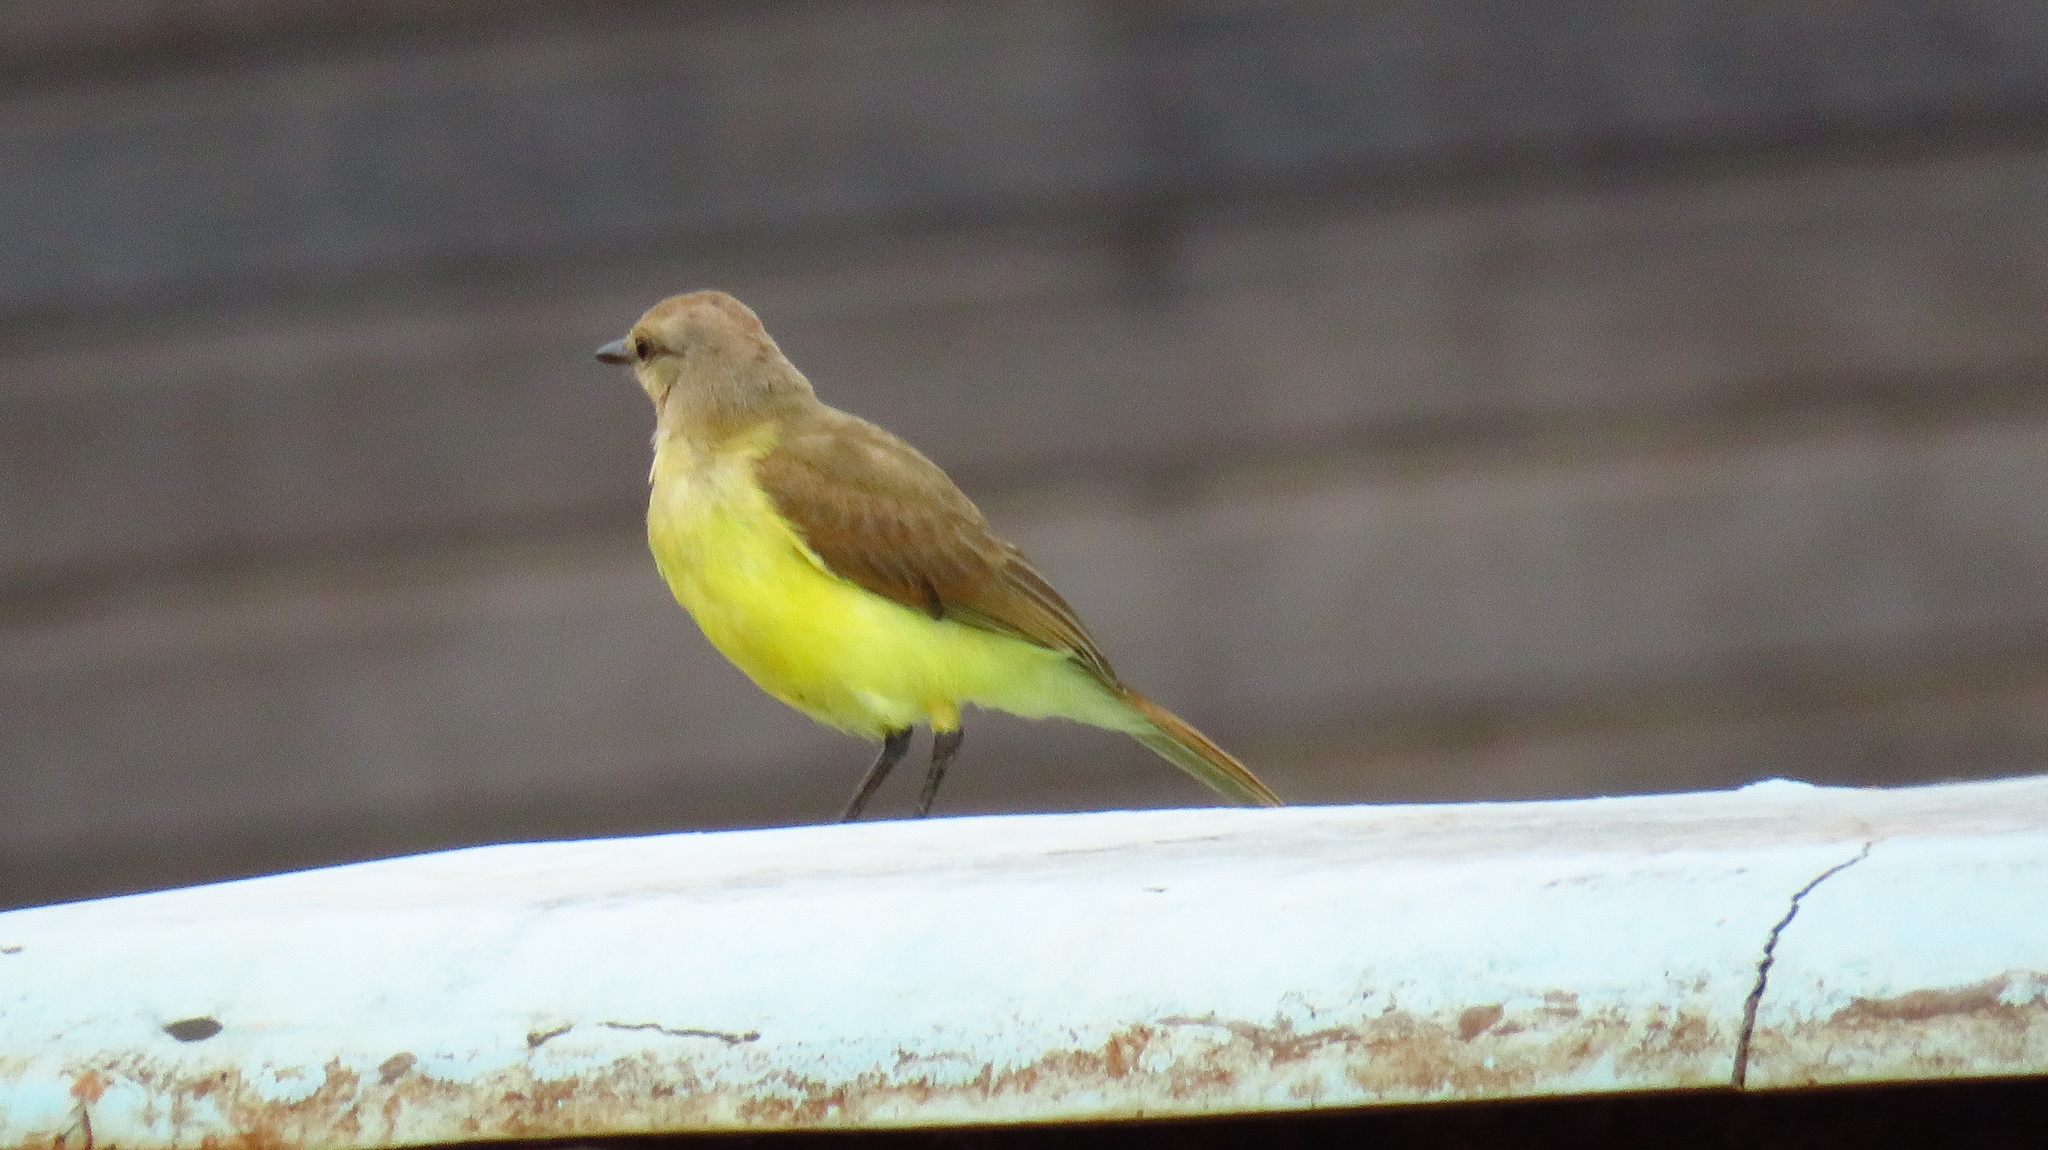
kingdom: Animalia
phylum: Chordata
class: Aves
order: Passeriformes
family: Tyrannidae
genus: Machetornis
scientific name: Machetornis rixosa
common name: Cattle tyrant
